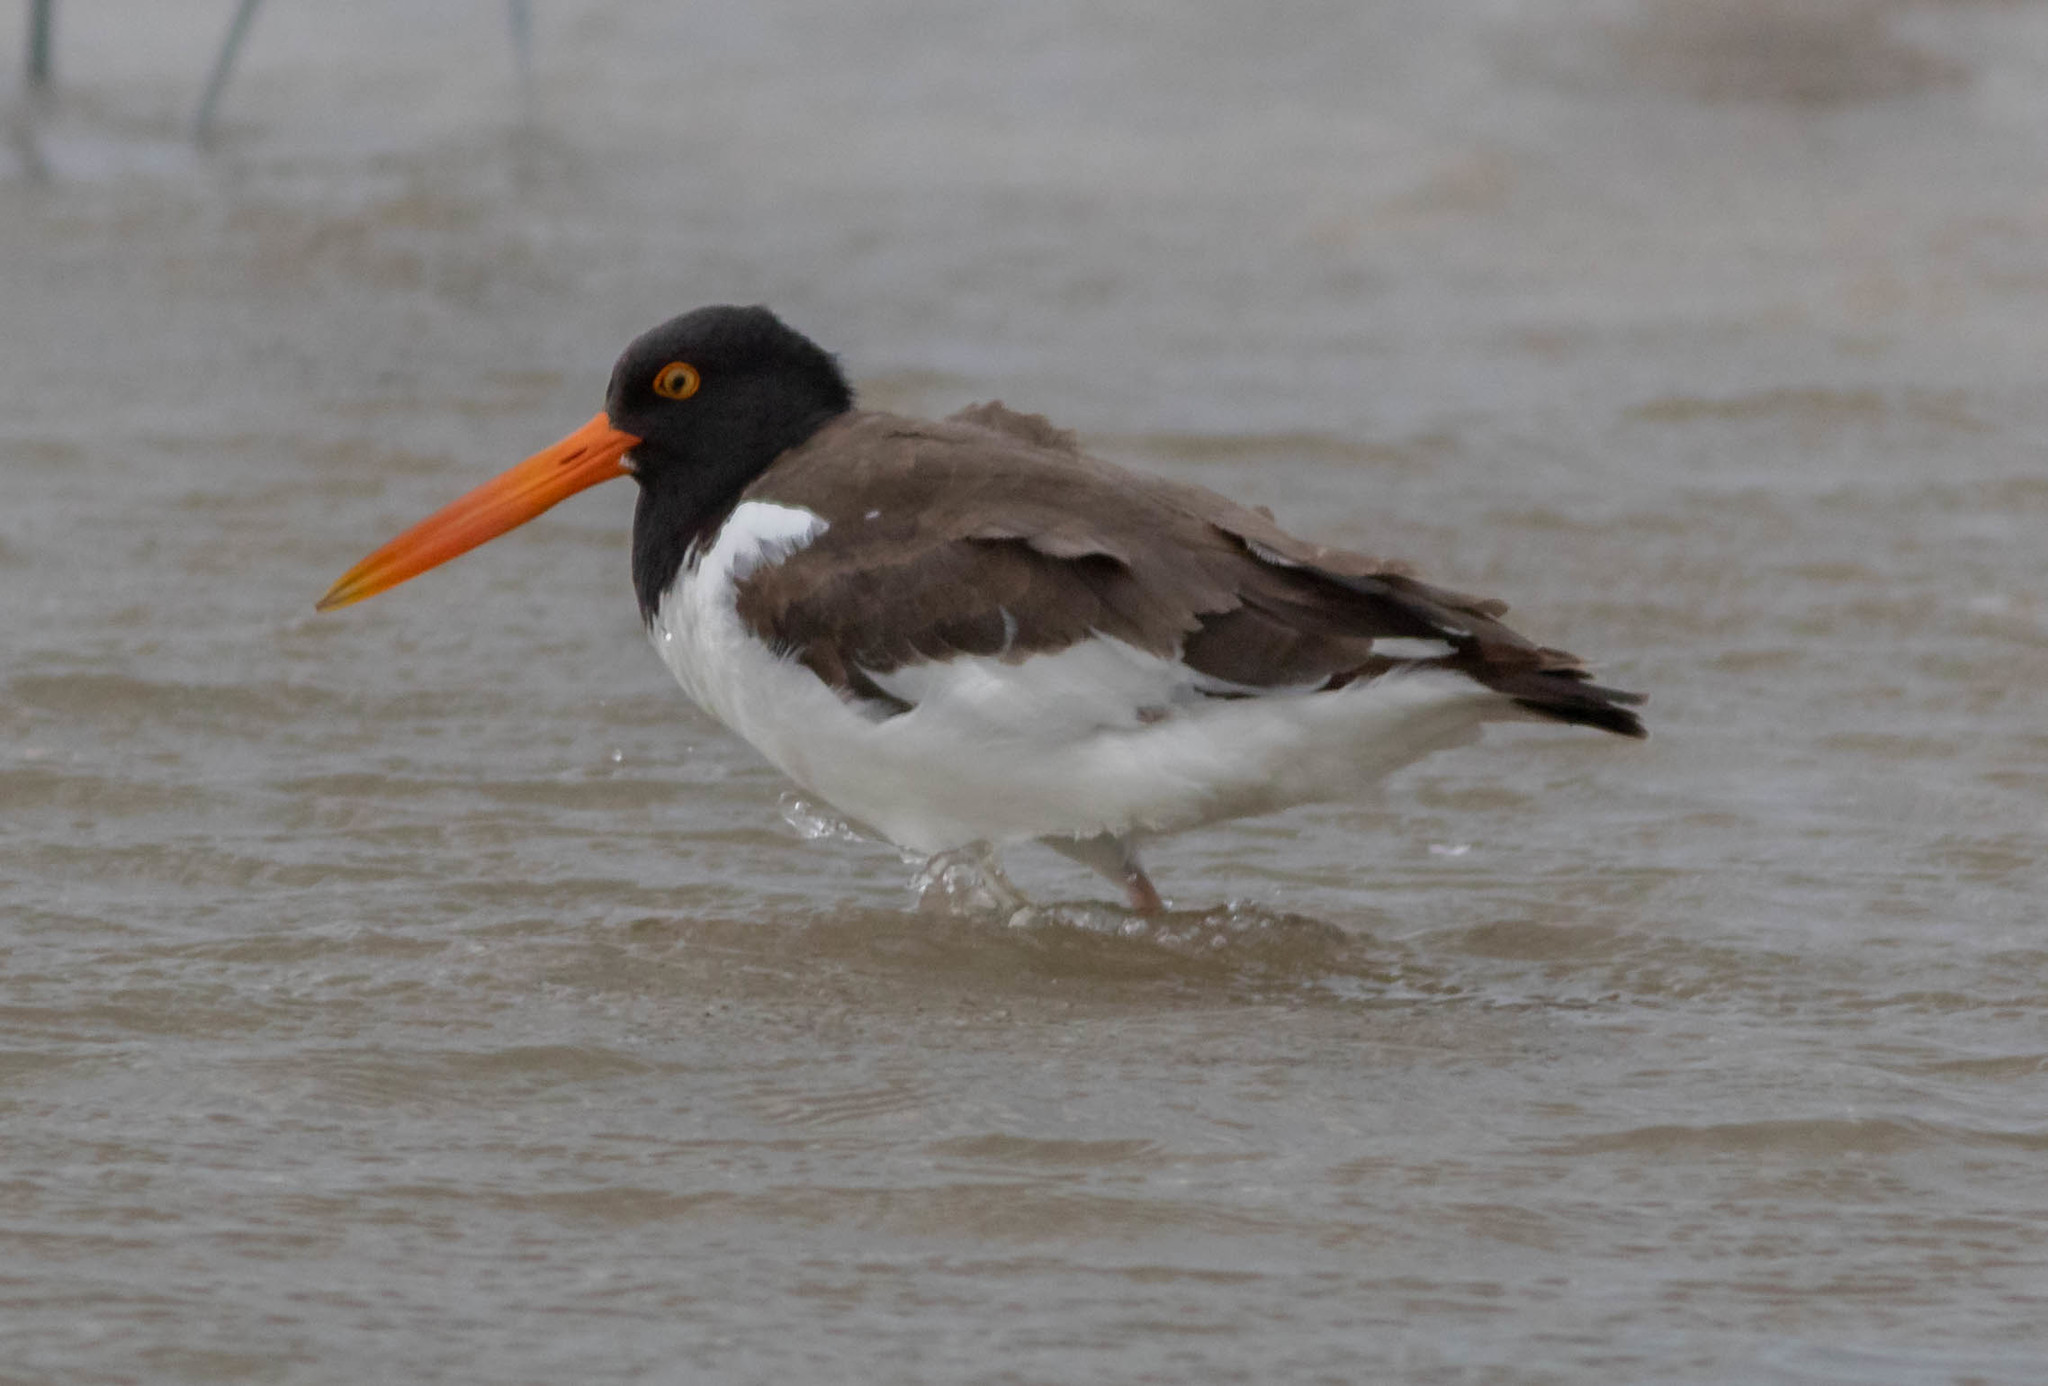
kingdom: Animalia
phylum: Chordata
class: Aves
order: Charadriiformes
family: Haematopodidae
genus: Haematopus
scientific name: Haematopus palliatus
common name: American oystercatcher
